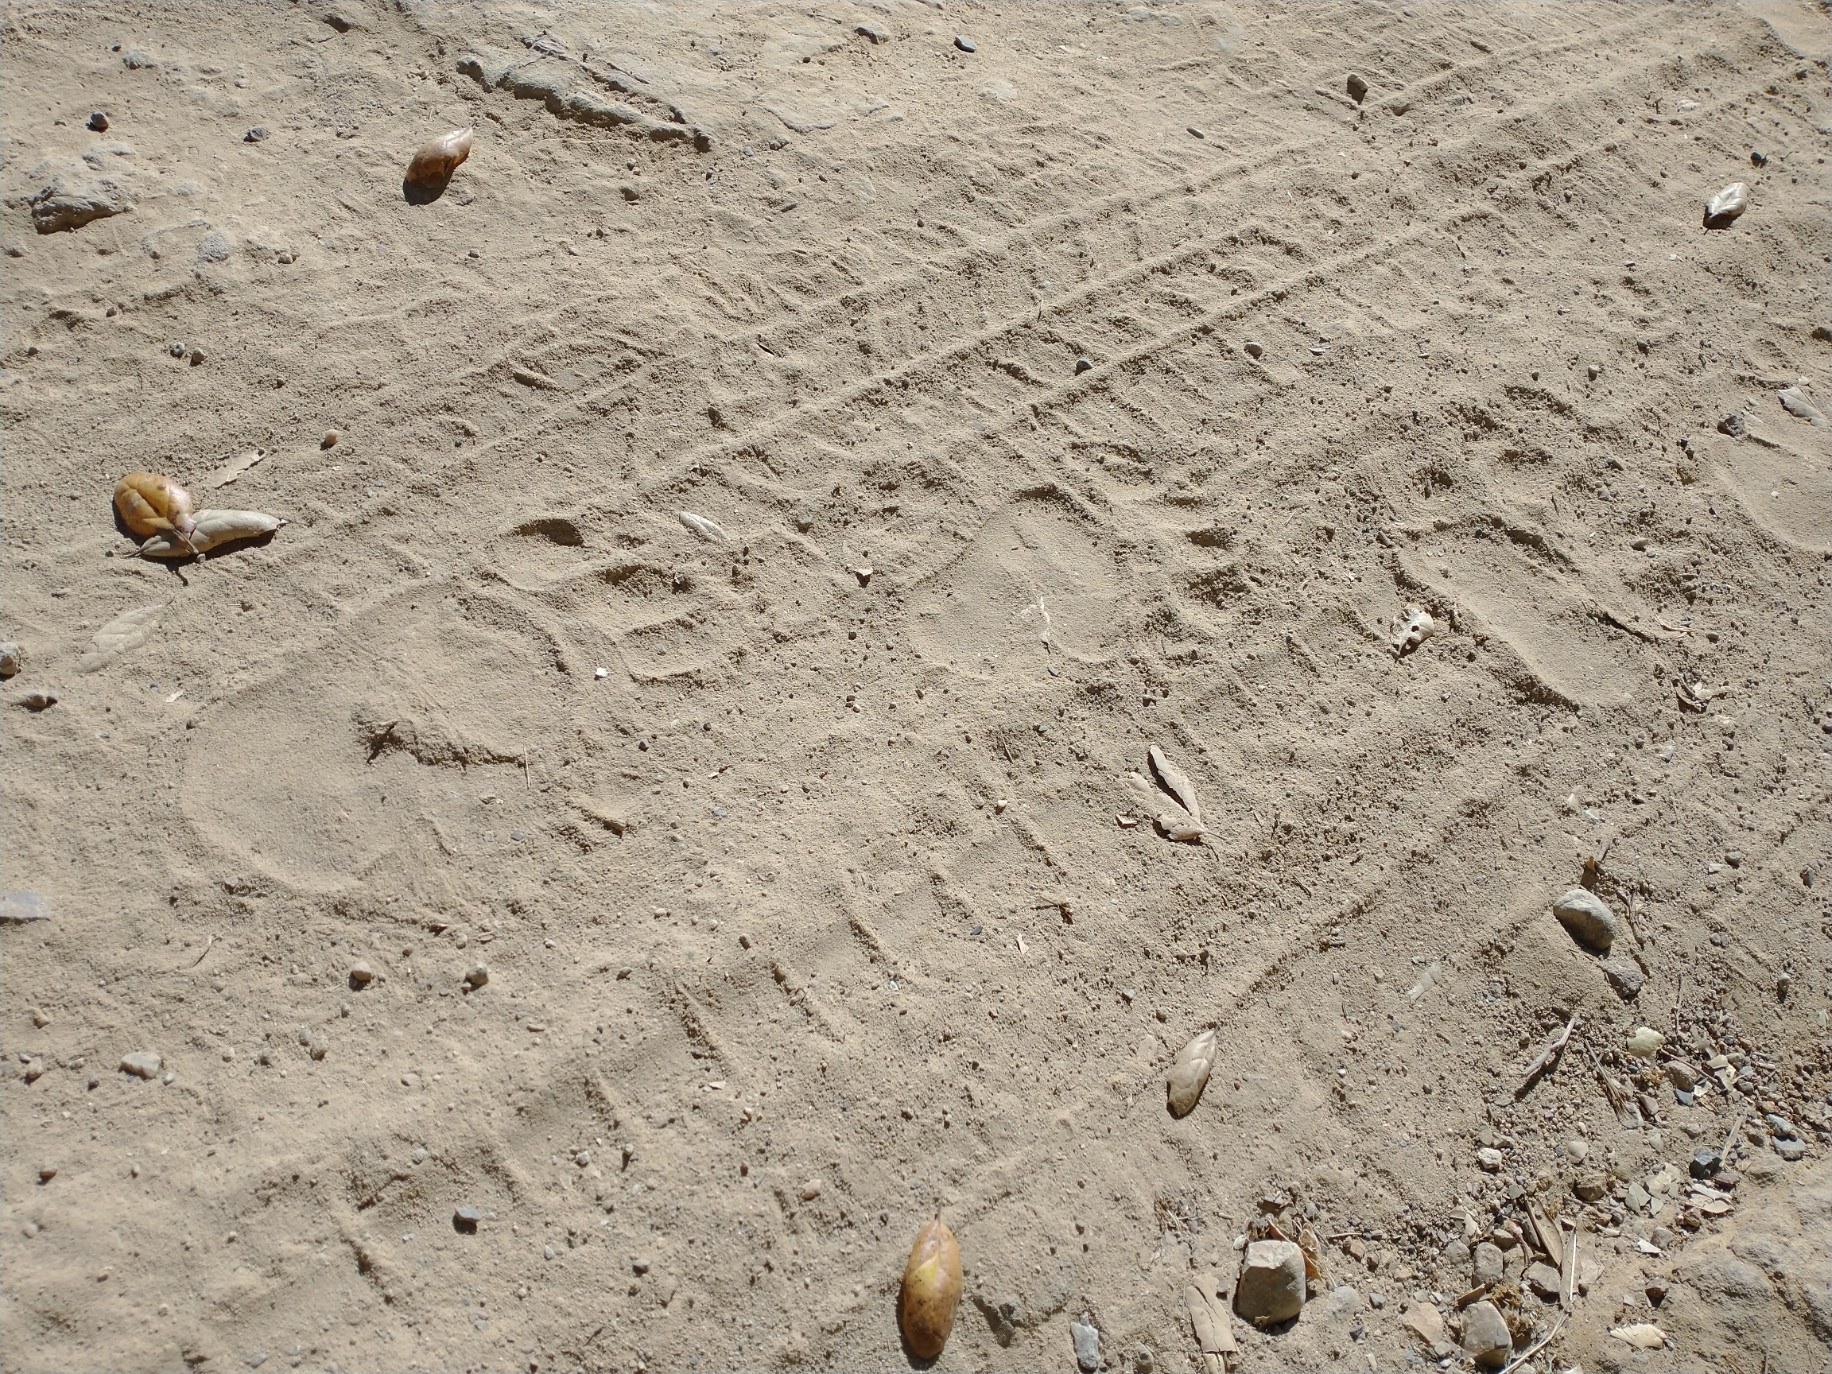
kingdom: Animalia
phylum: Chordata
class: Mammalia
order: Carnivora
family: Ursidae
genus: Ursus
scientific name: Ursus americanus
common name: American black bear
